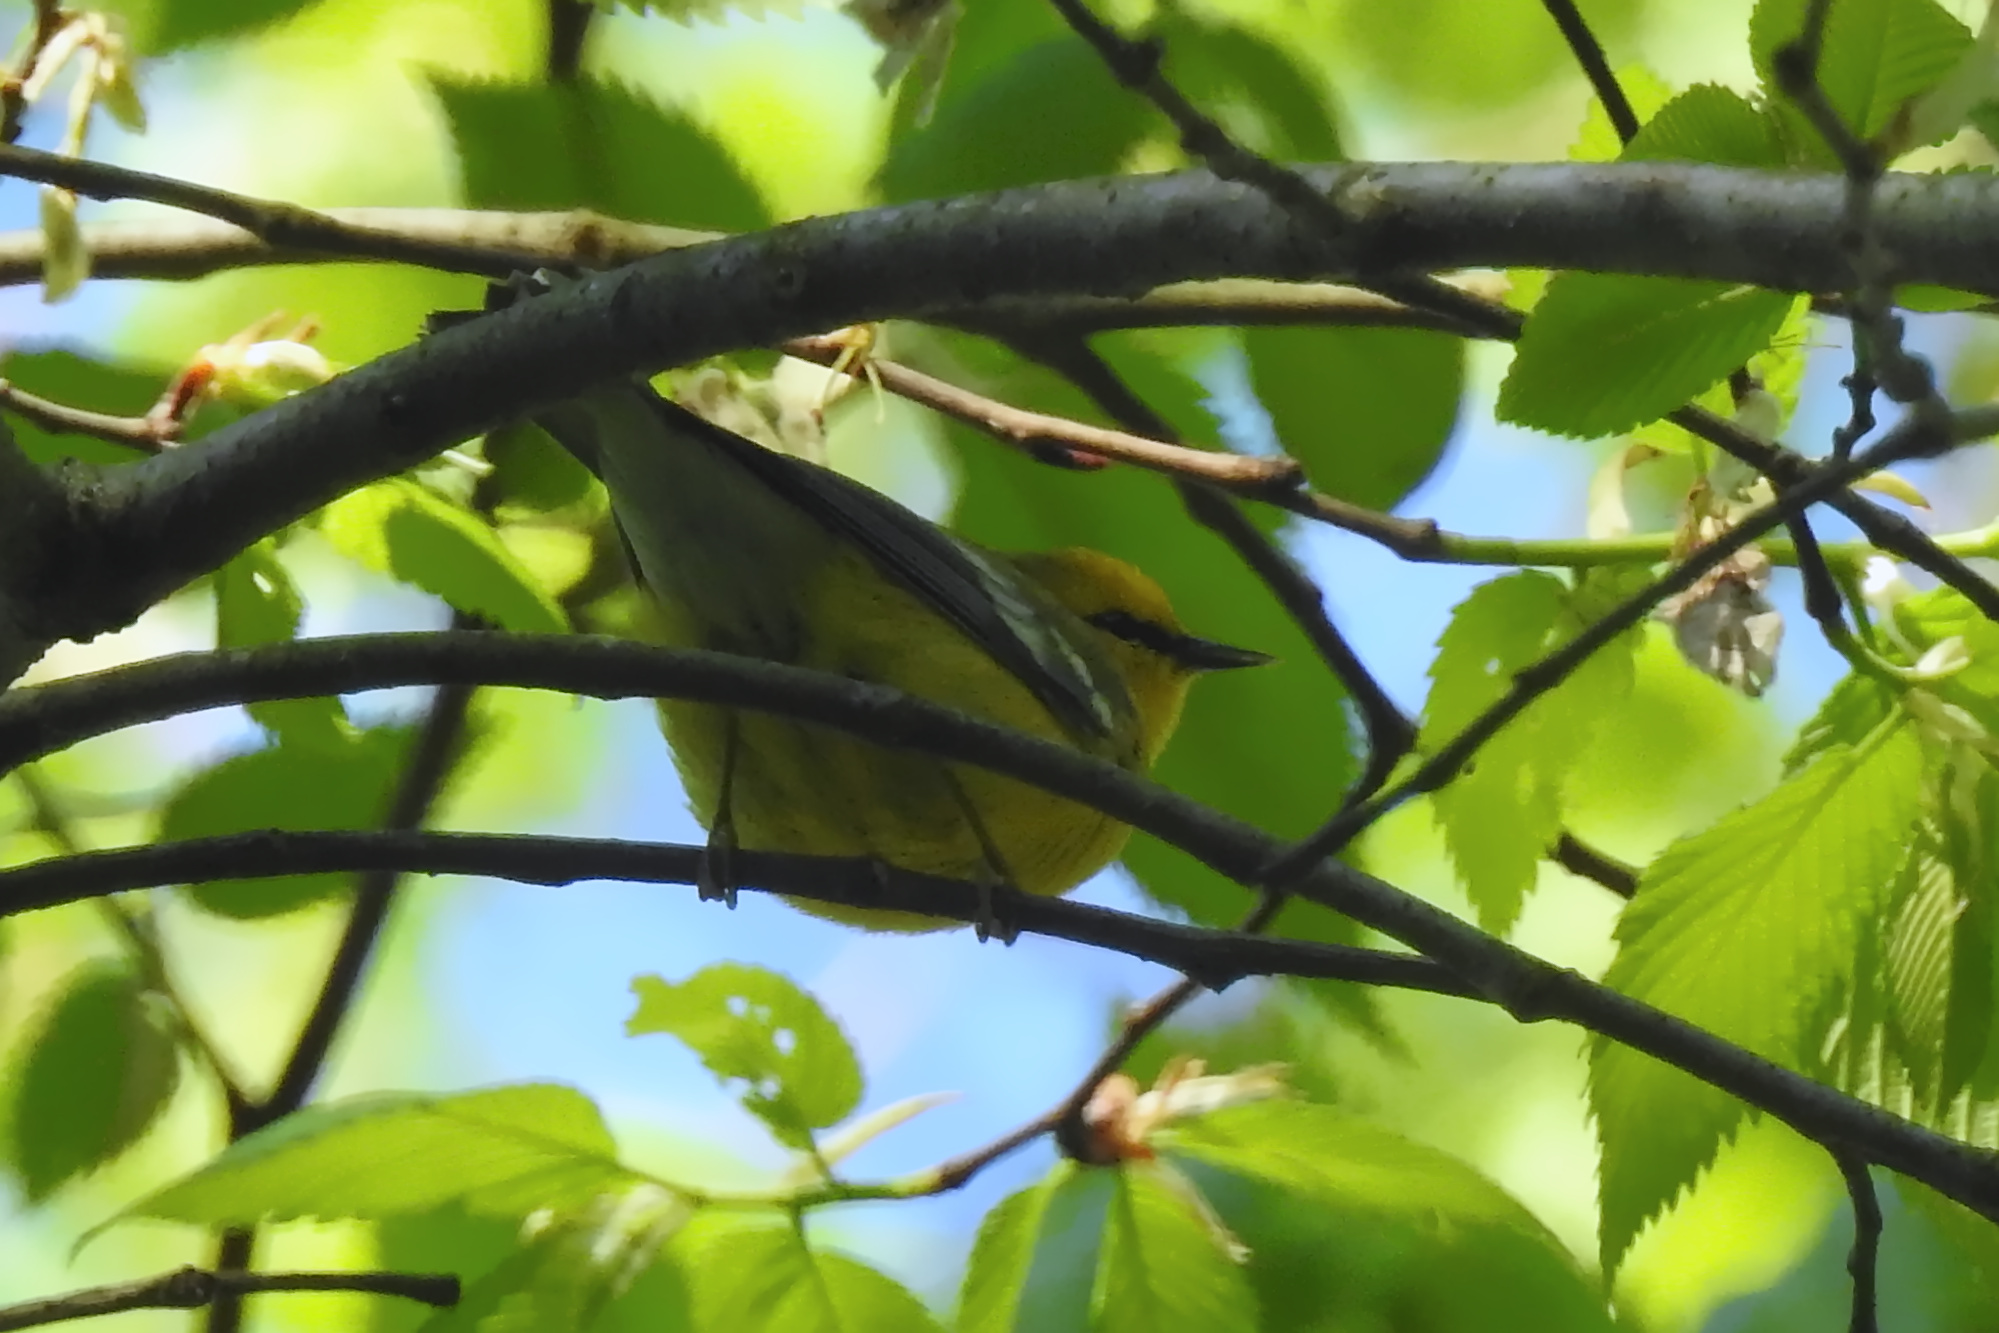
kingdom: Animalia
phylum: Chordata
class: Aves
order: Passeriformes
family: Parulidae
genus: Vermivora
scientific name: Vermivora cyanoptera
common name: Blue-winged warbler
